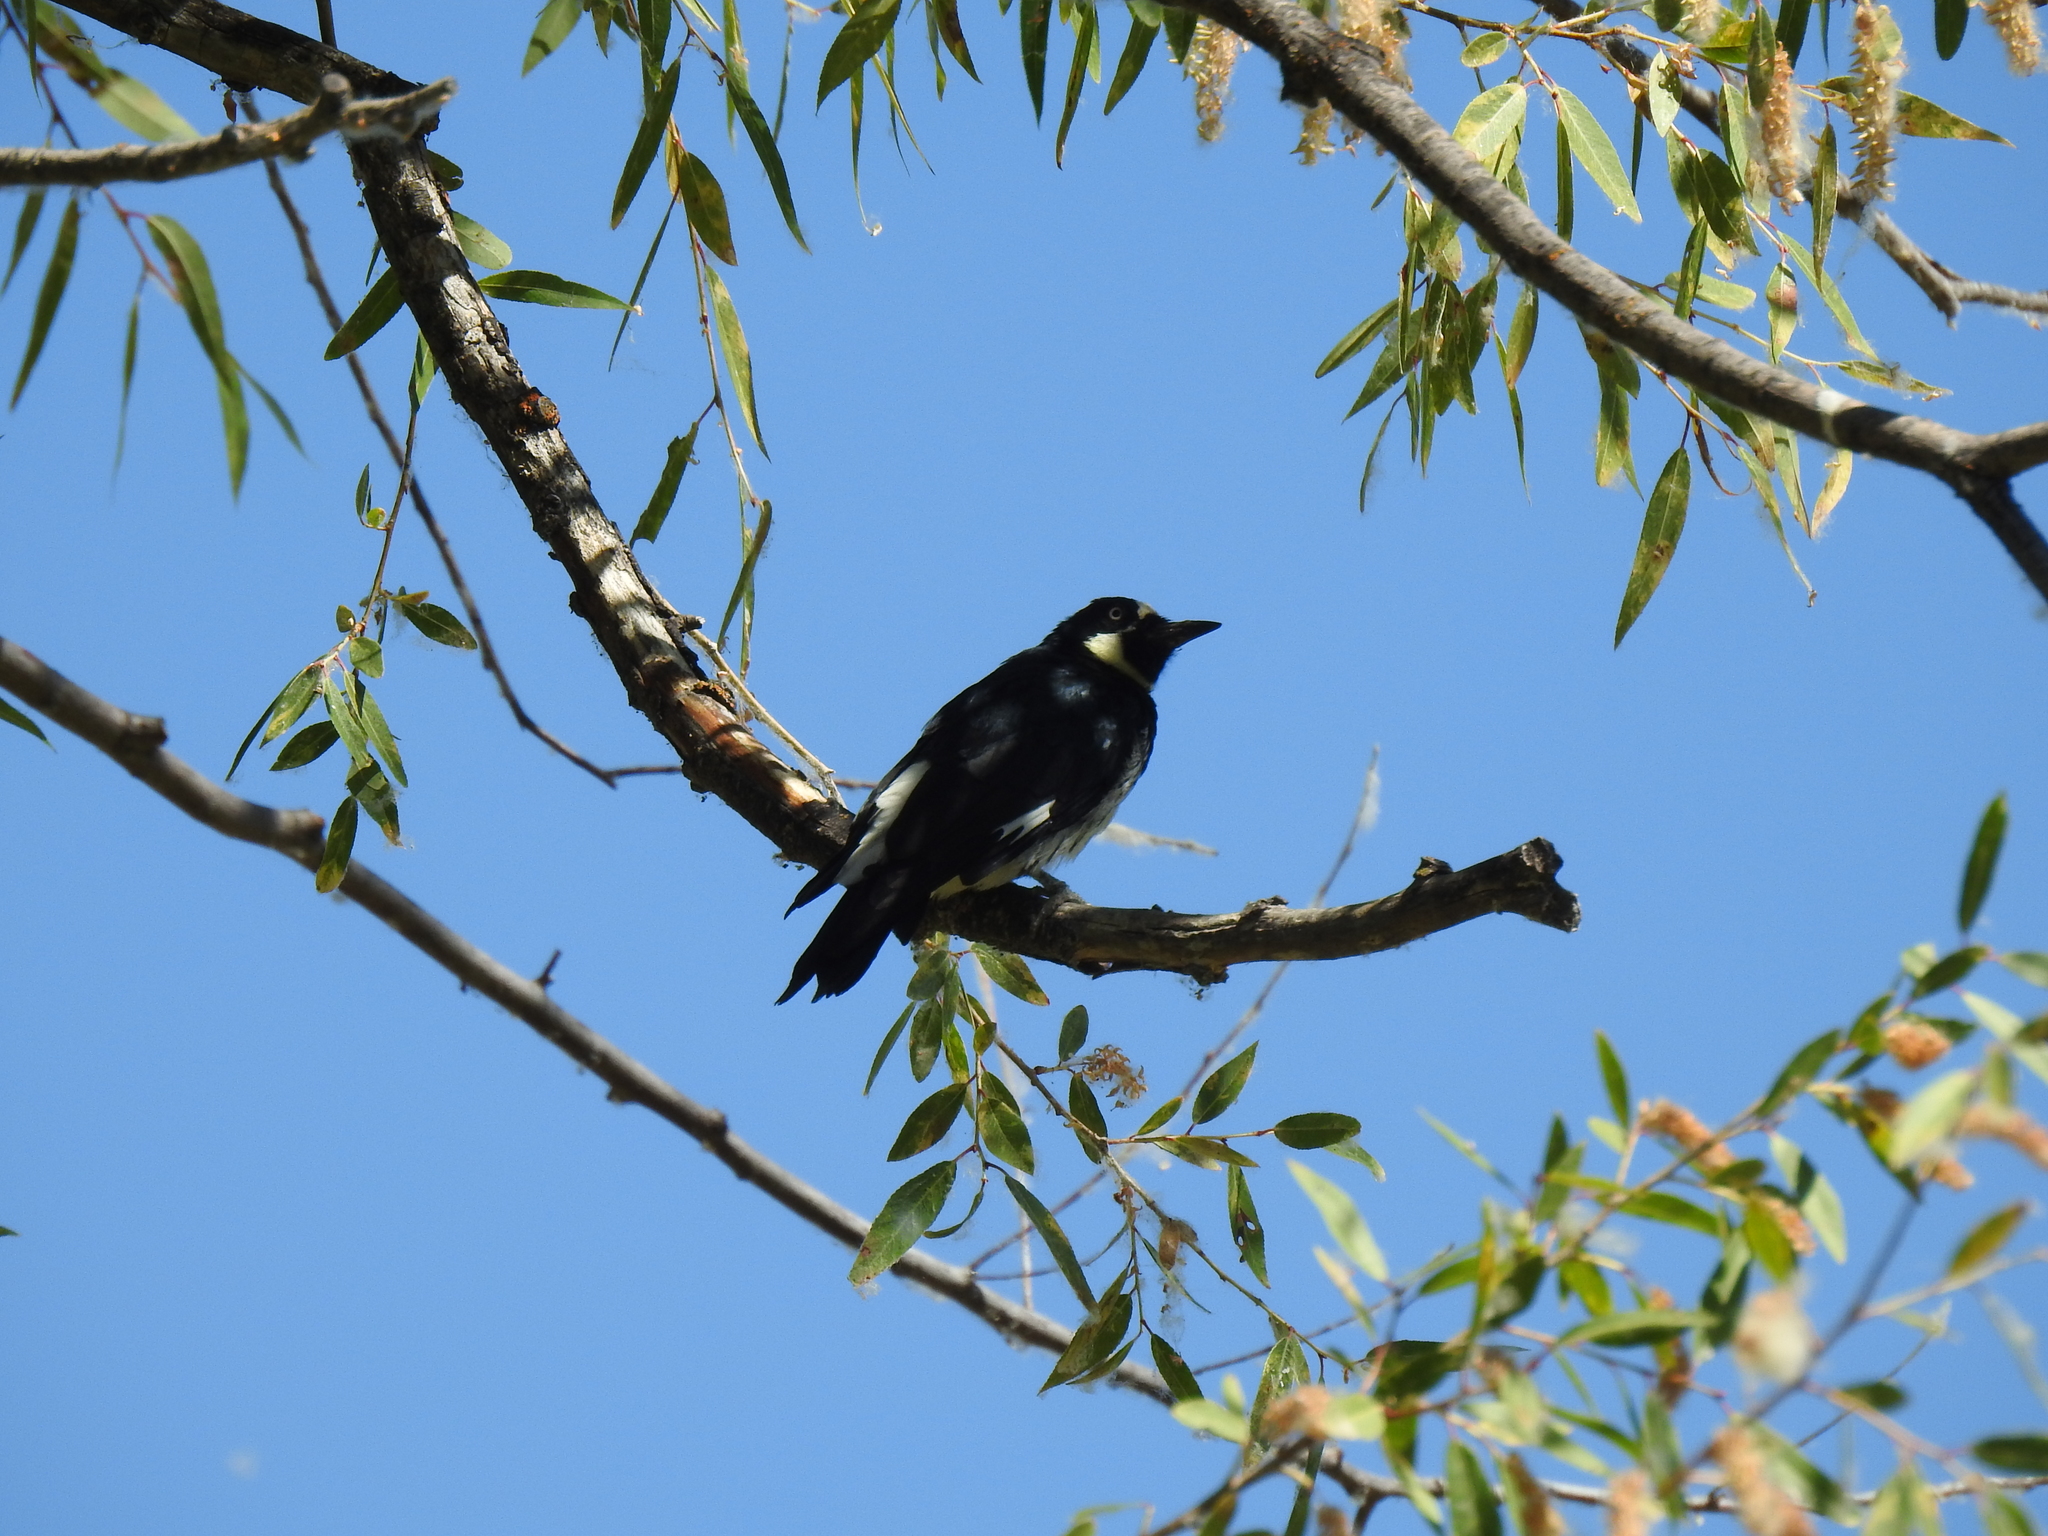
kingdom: Animalia
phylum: Chordata
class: Aves
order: Piciformes
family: Picidae
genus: Melanerpes
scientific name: Melanerpes formicivorus
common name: Acorn woodpecker
